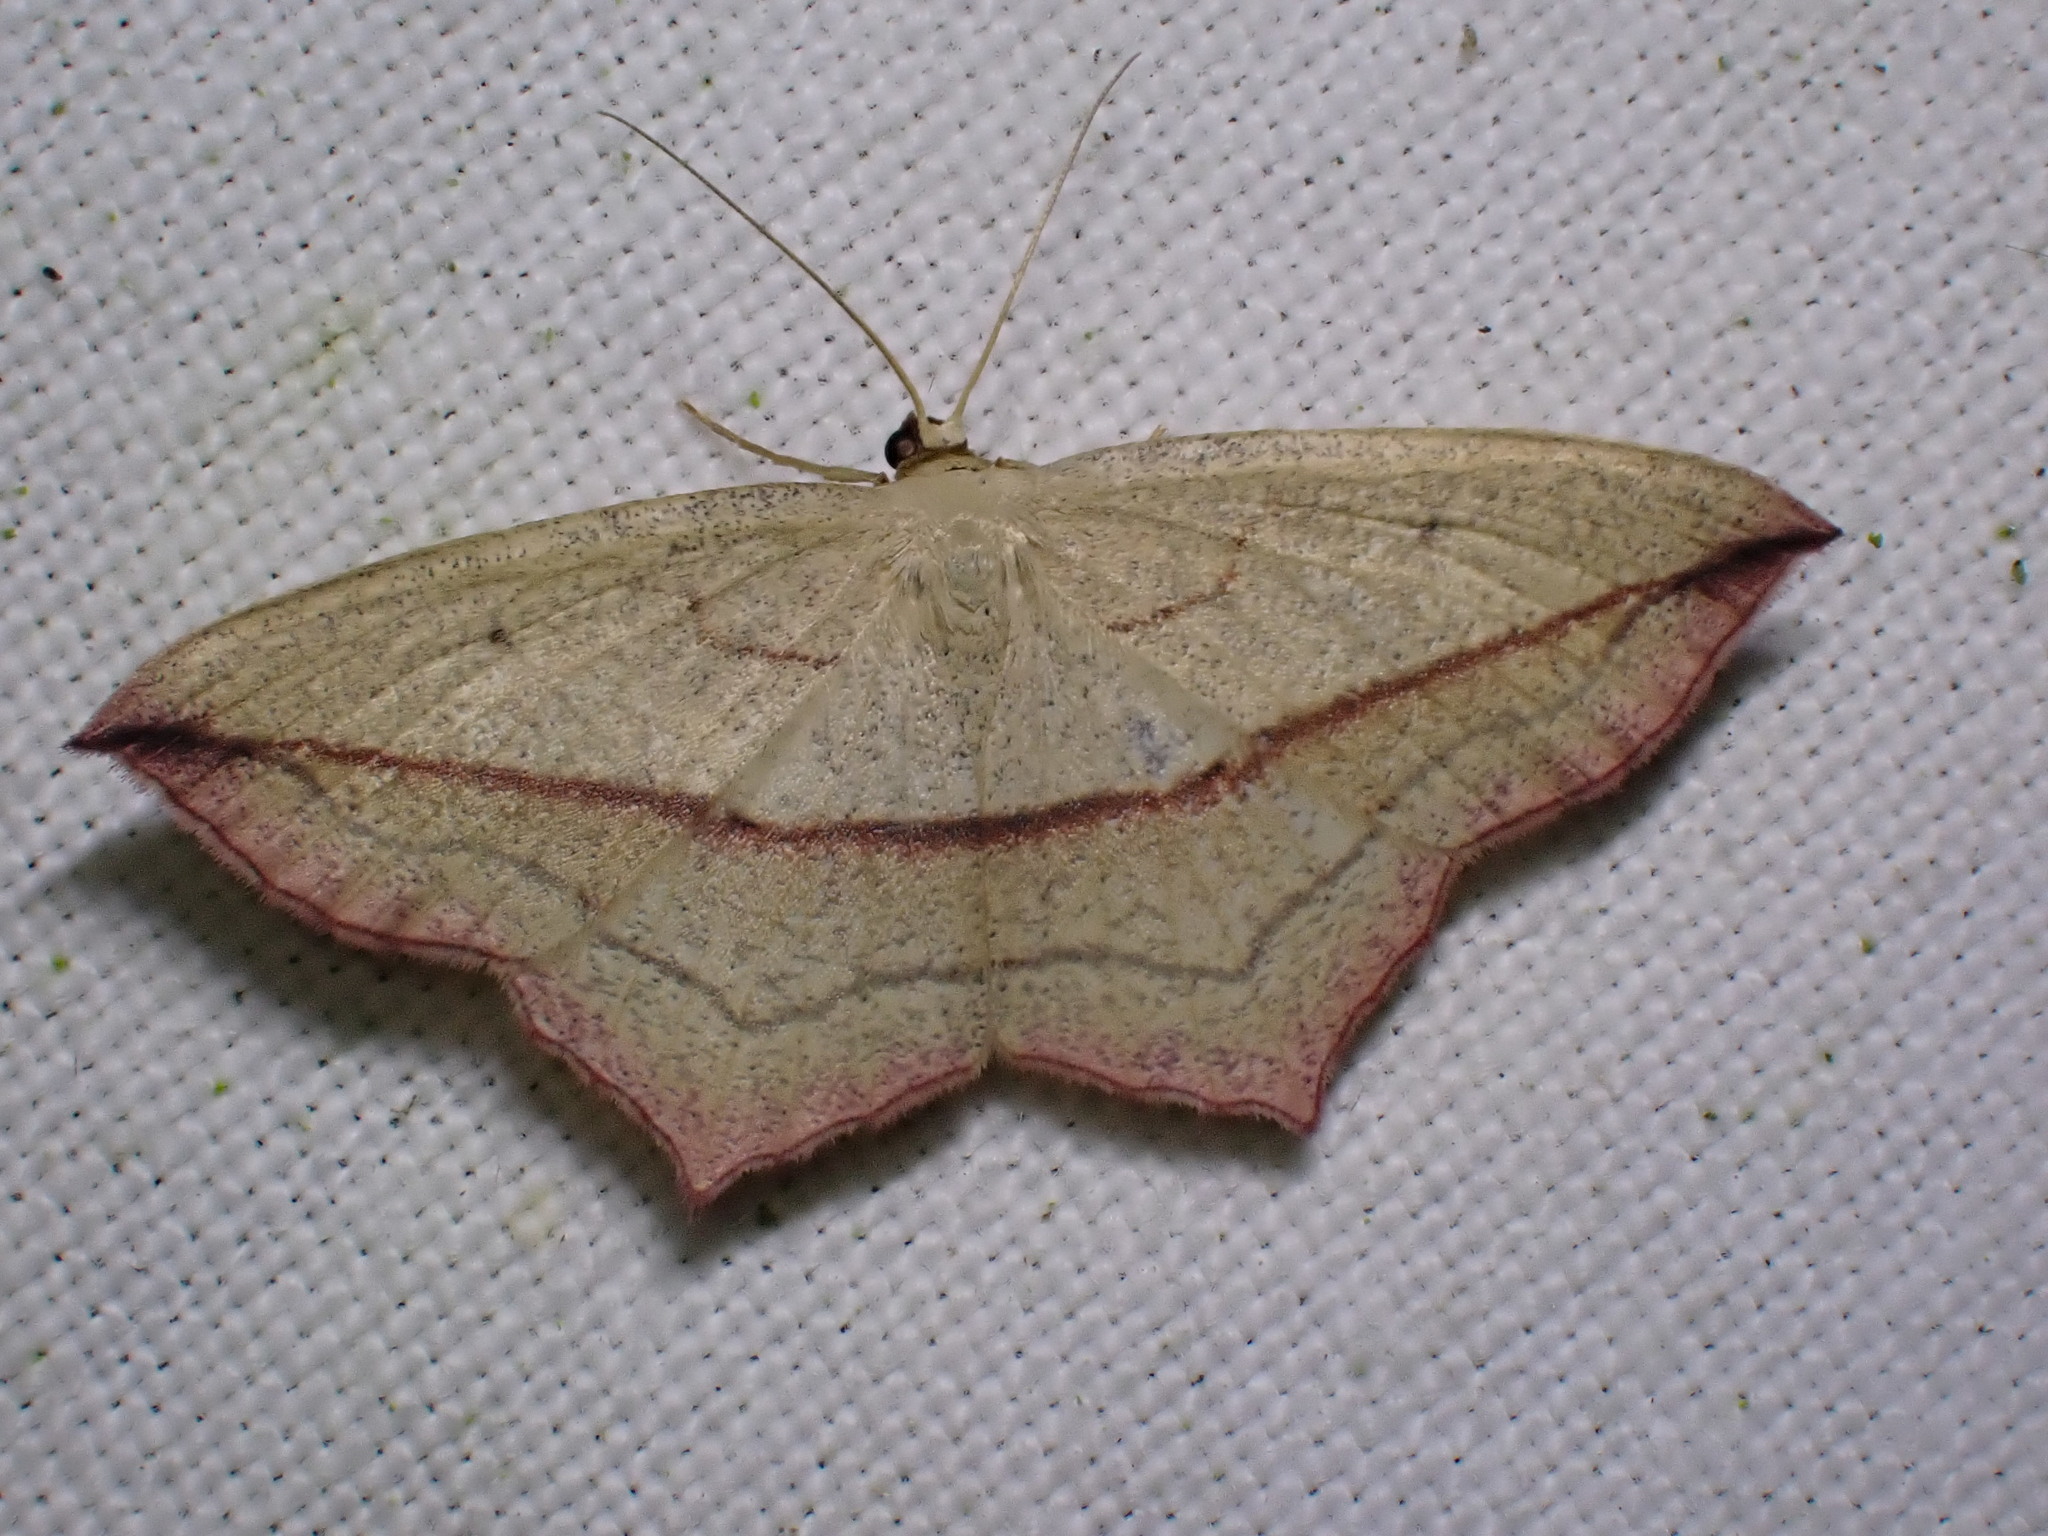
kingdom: Animalia
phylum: Arthropoda
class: Insecta
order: Lepidoptera
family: Geometridae
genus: Timandra
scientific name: Timandra comae
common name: Blood-vein
